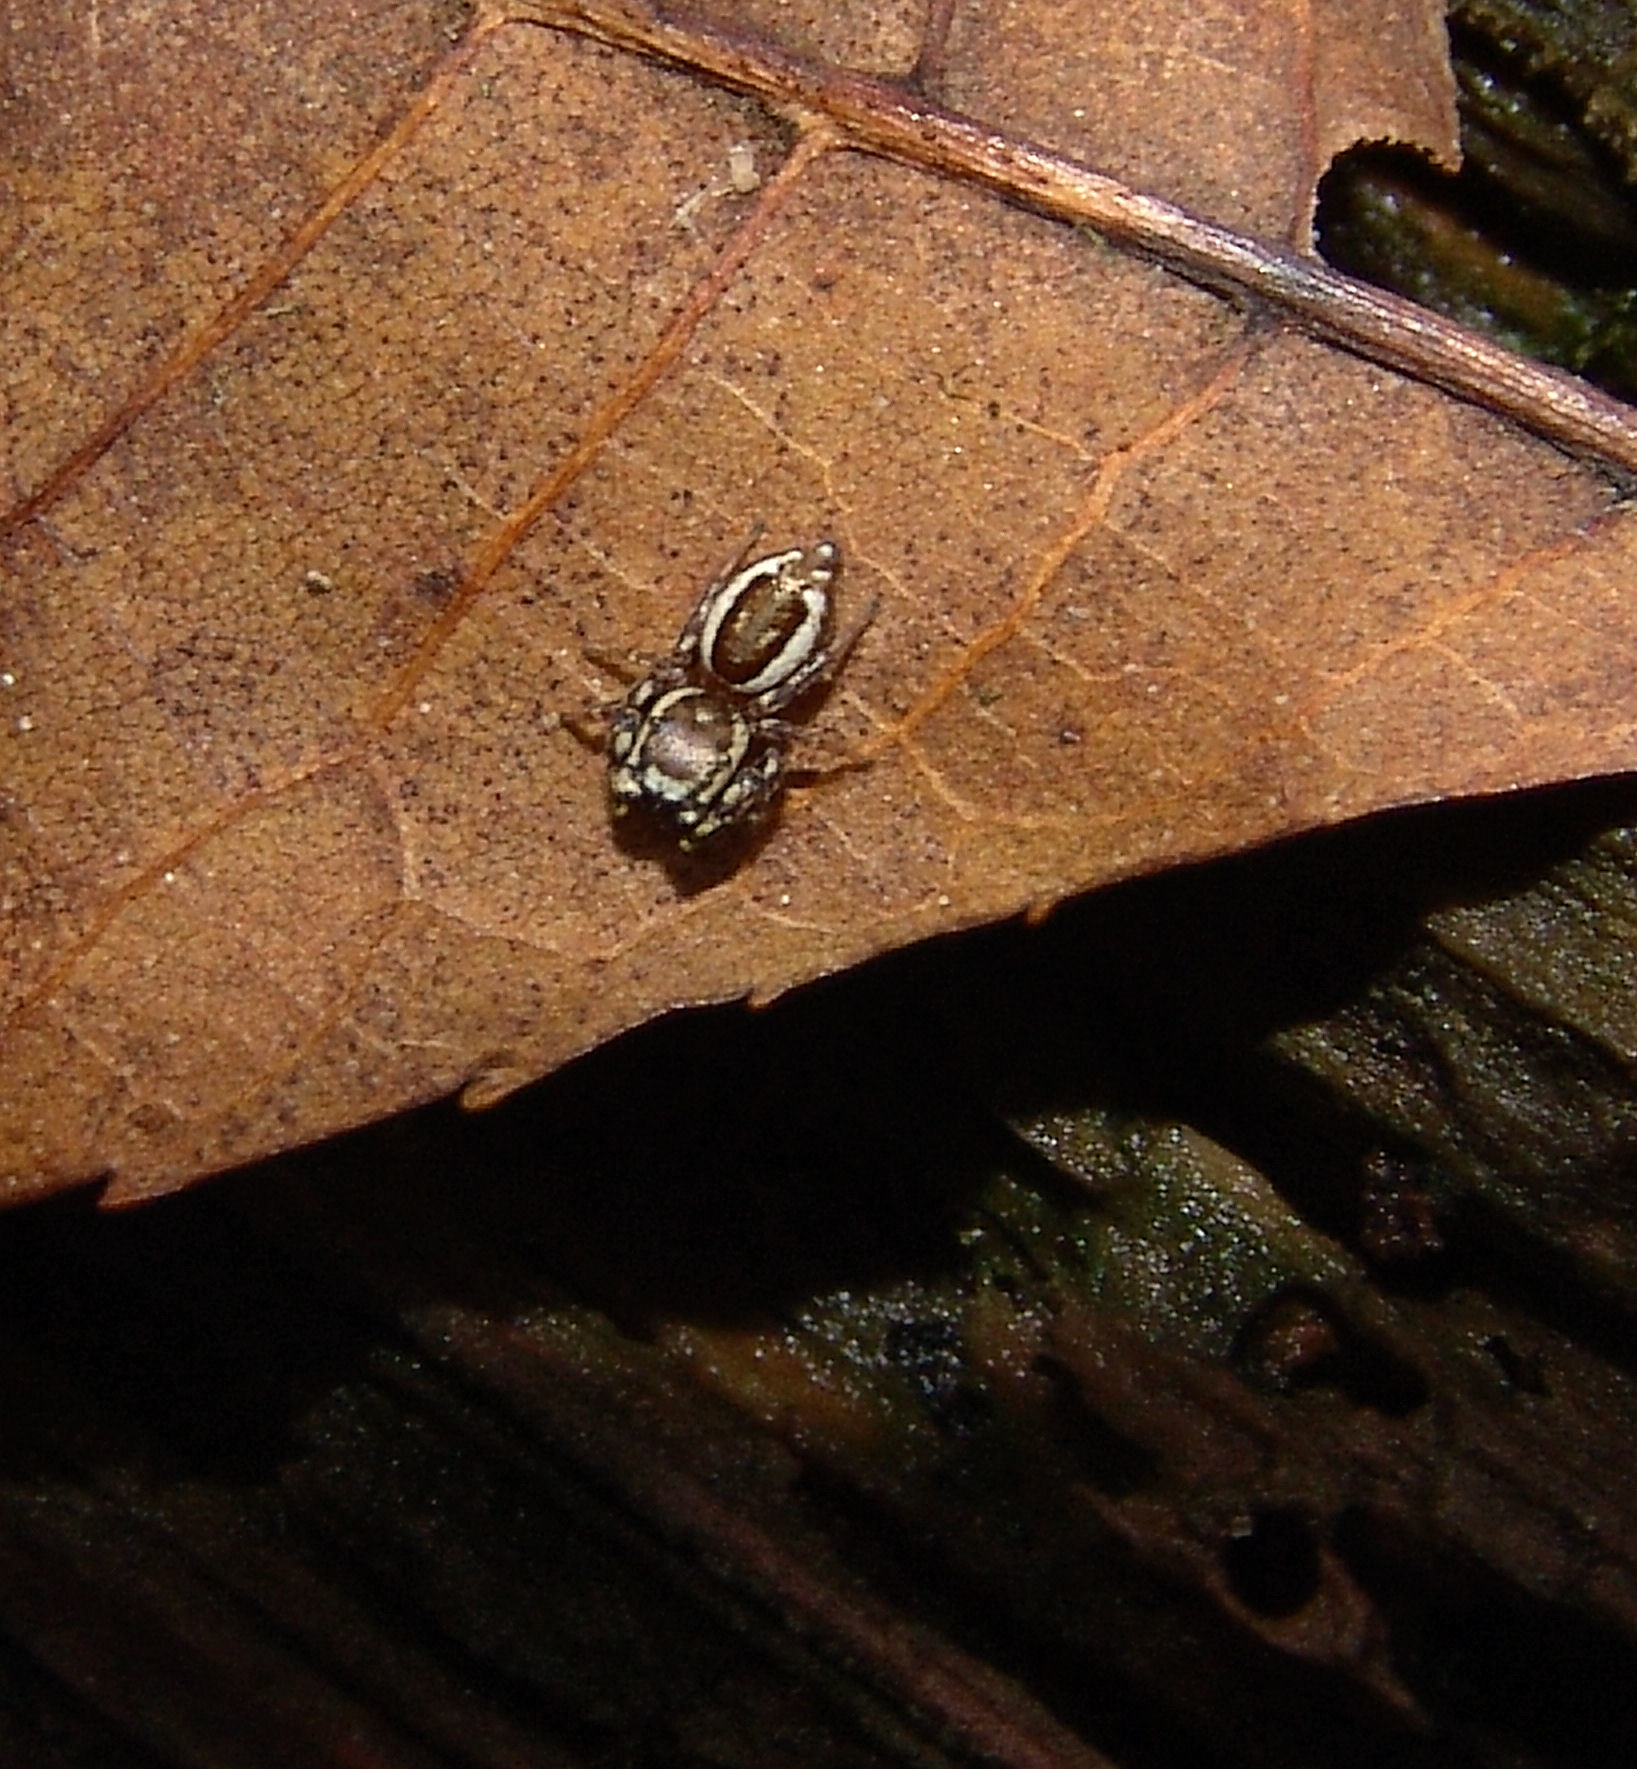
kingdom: Animalia
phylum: Arthropoda
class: Arachnida
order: Araneae
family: Salticidae
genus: Pelegrina
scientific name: Pelegrina proterva
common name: Common white-cheeked jumping spider
